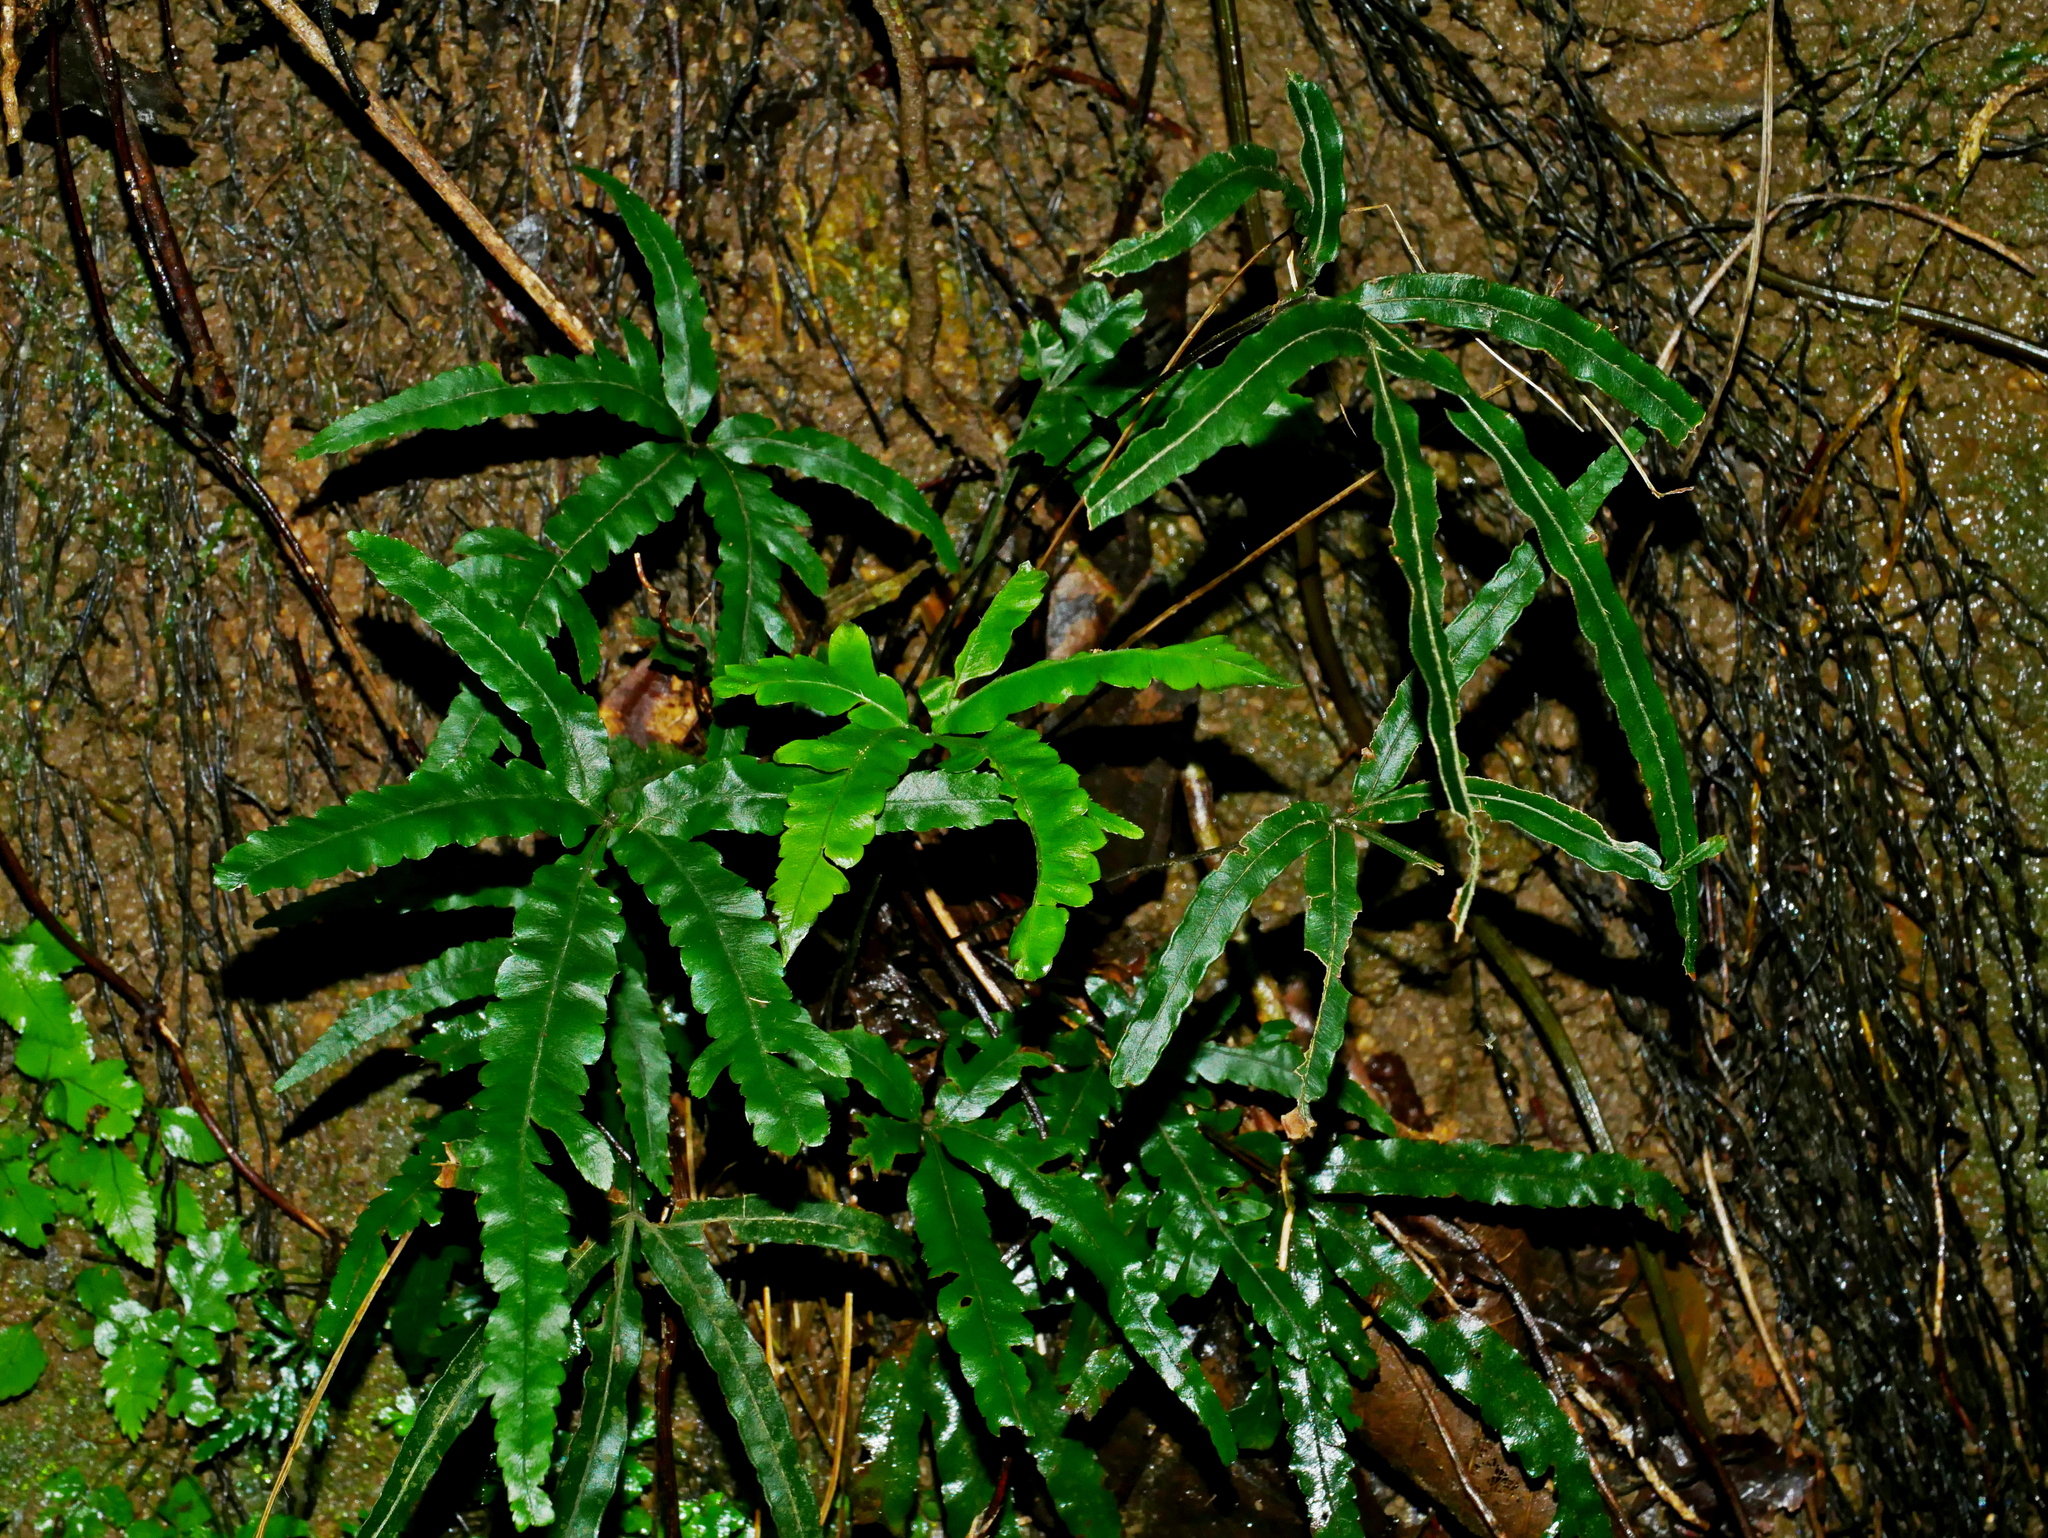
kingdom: Plantae
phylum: Tracheophyta
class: Polypodiopsida
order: Polypodiales
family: Pteridaceae
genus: Pteris
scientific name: Pteris cadieri
